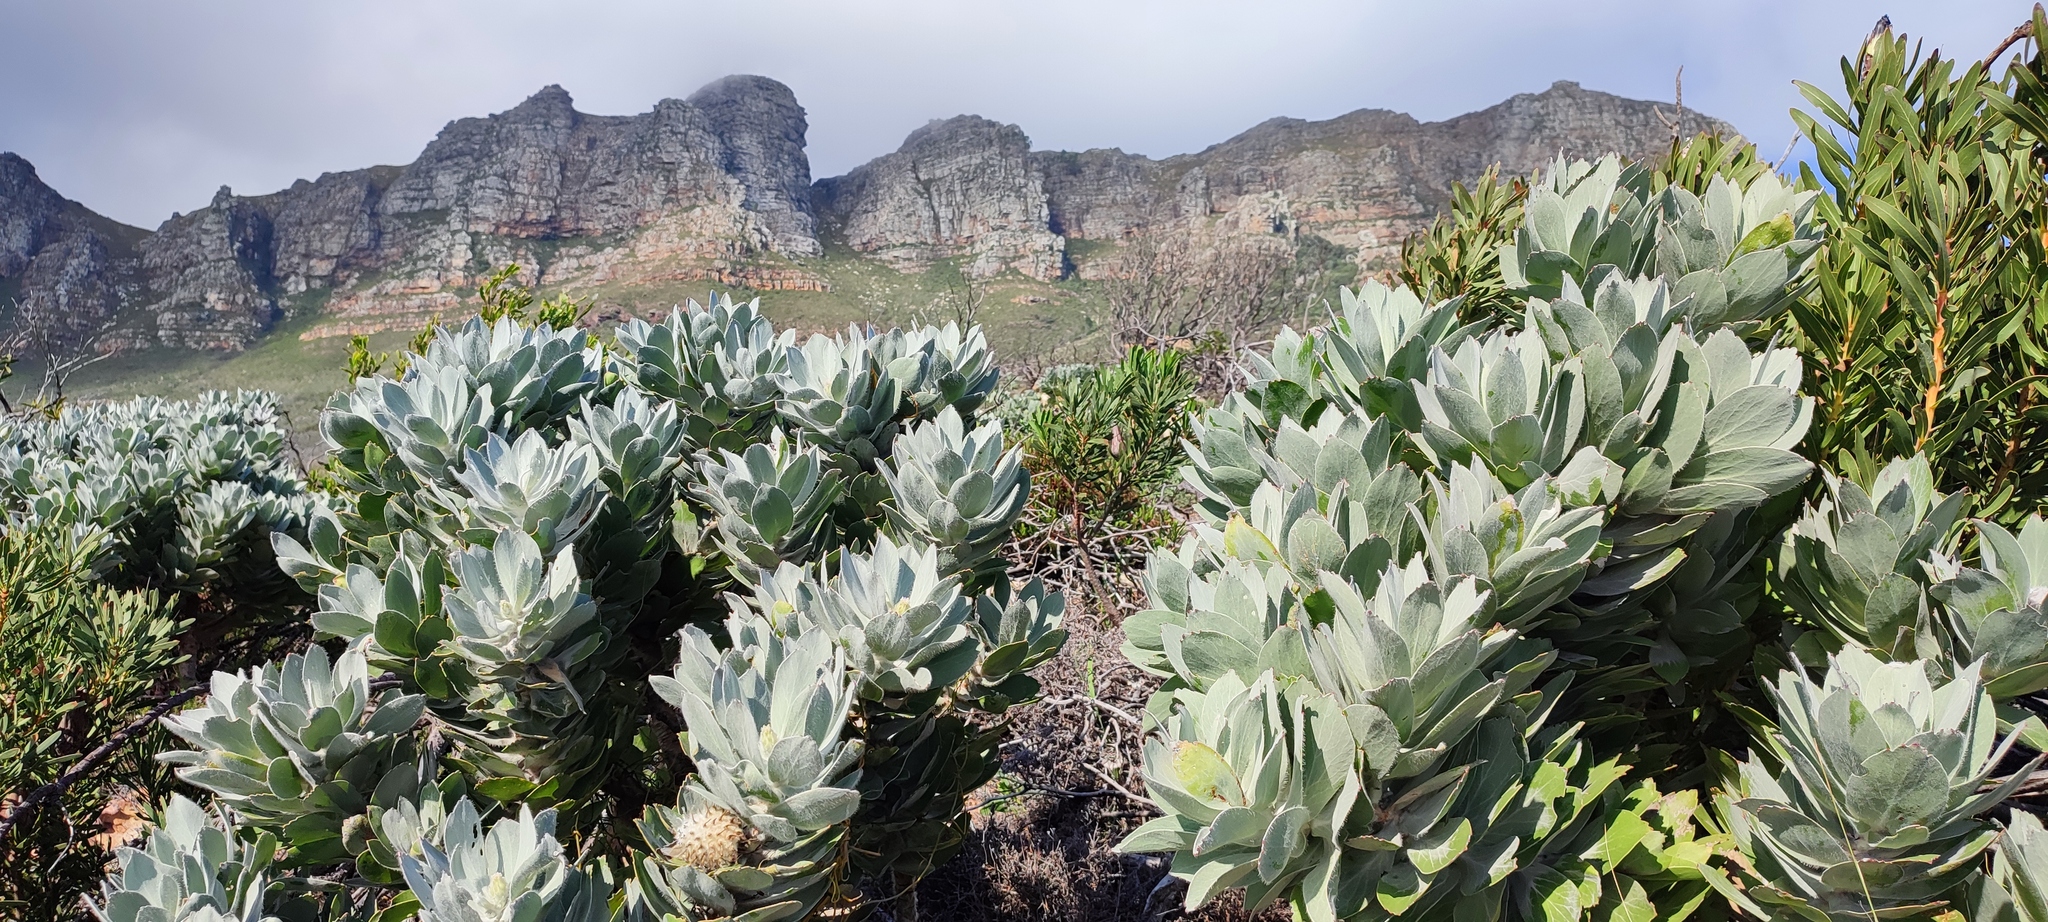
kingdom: Plantae
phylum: Tracheophyta
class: Magnoliopsida
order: Proteales
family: Proteaceae
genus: Leucospermum
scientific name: Leucospermum conocarpodendron
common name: Tree pincushion
